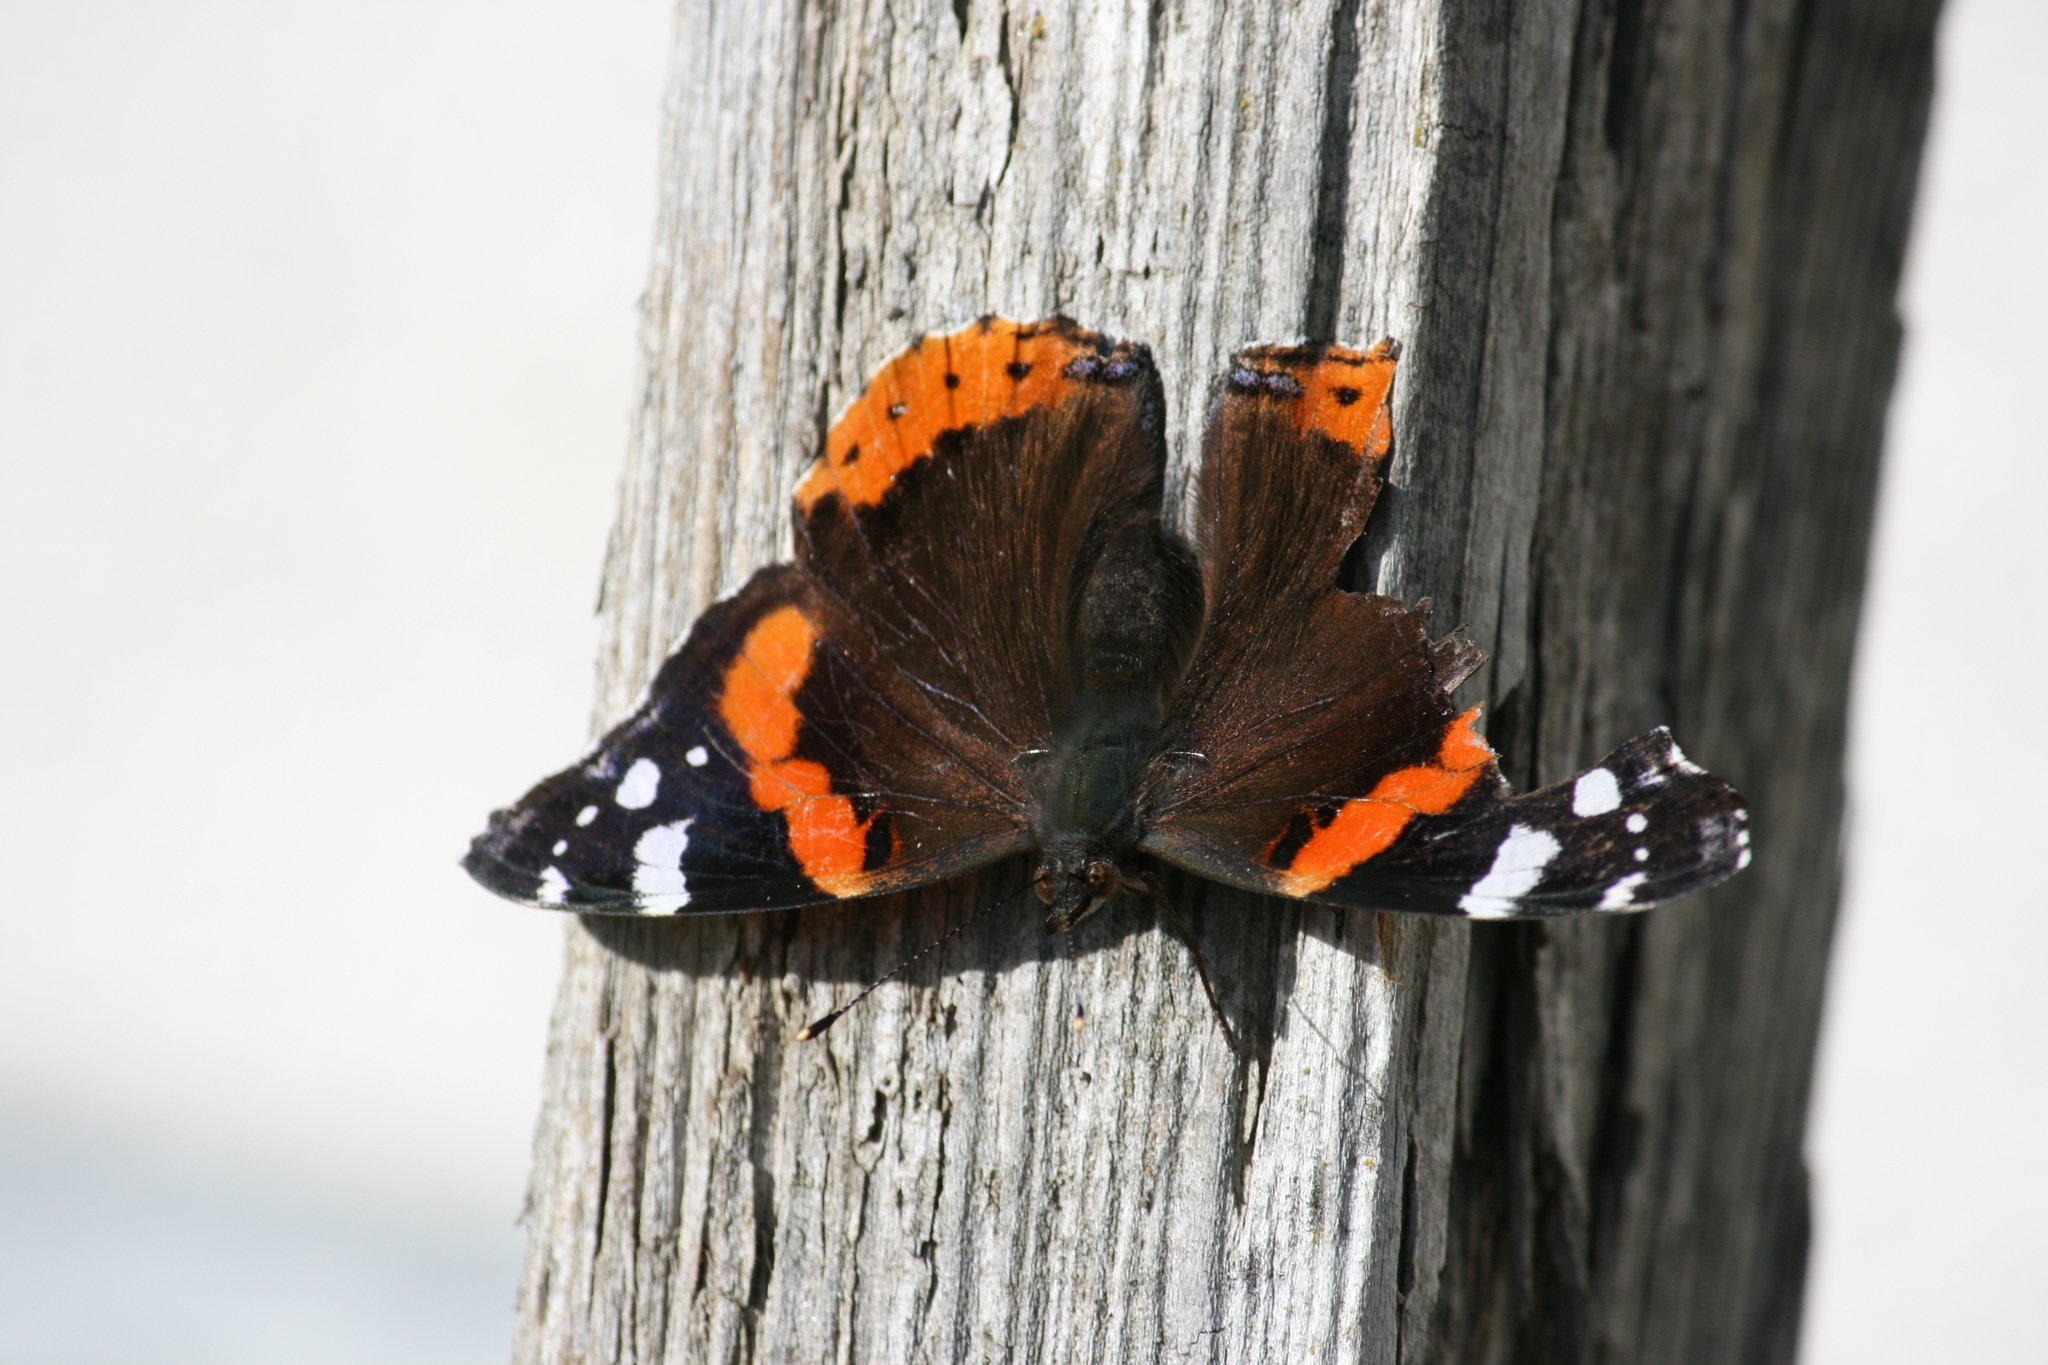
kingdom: Animalia
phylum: Arthropoda
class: Insecta
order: Lepidoptera
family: Nymphalidae
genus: Vanessa
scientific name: Vanessa atalanta
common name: Red admiral
